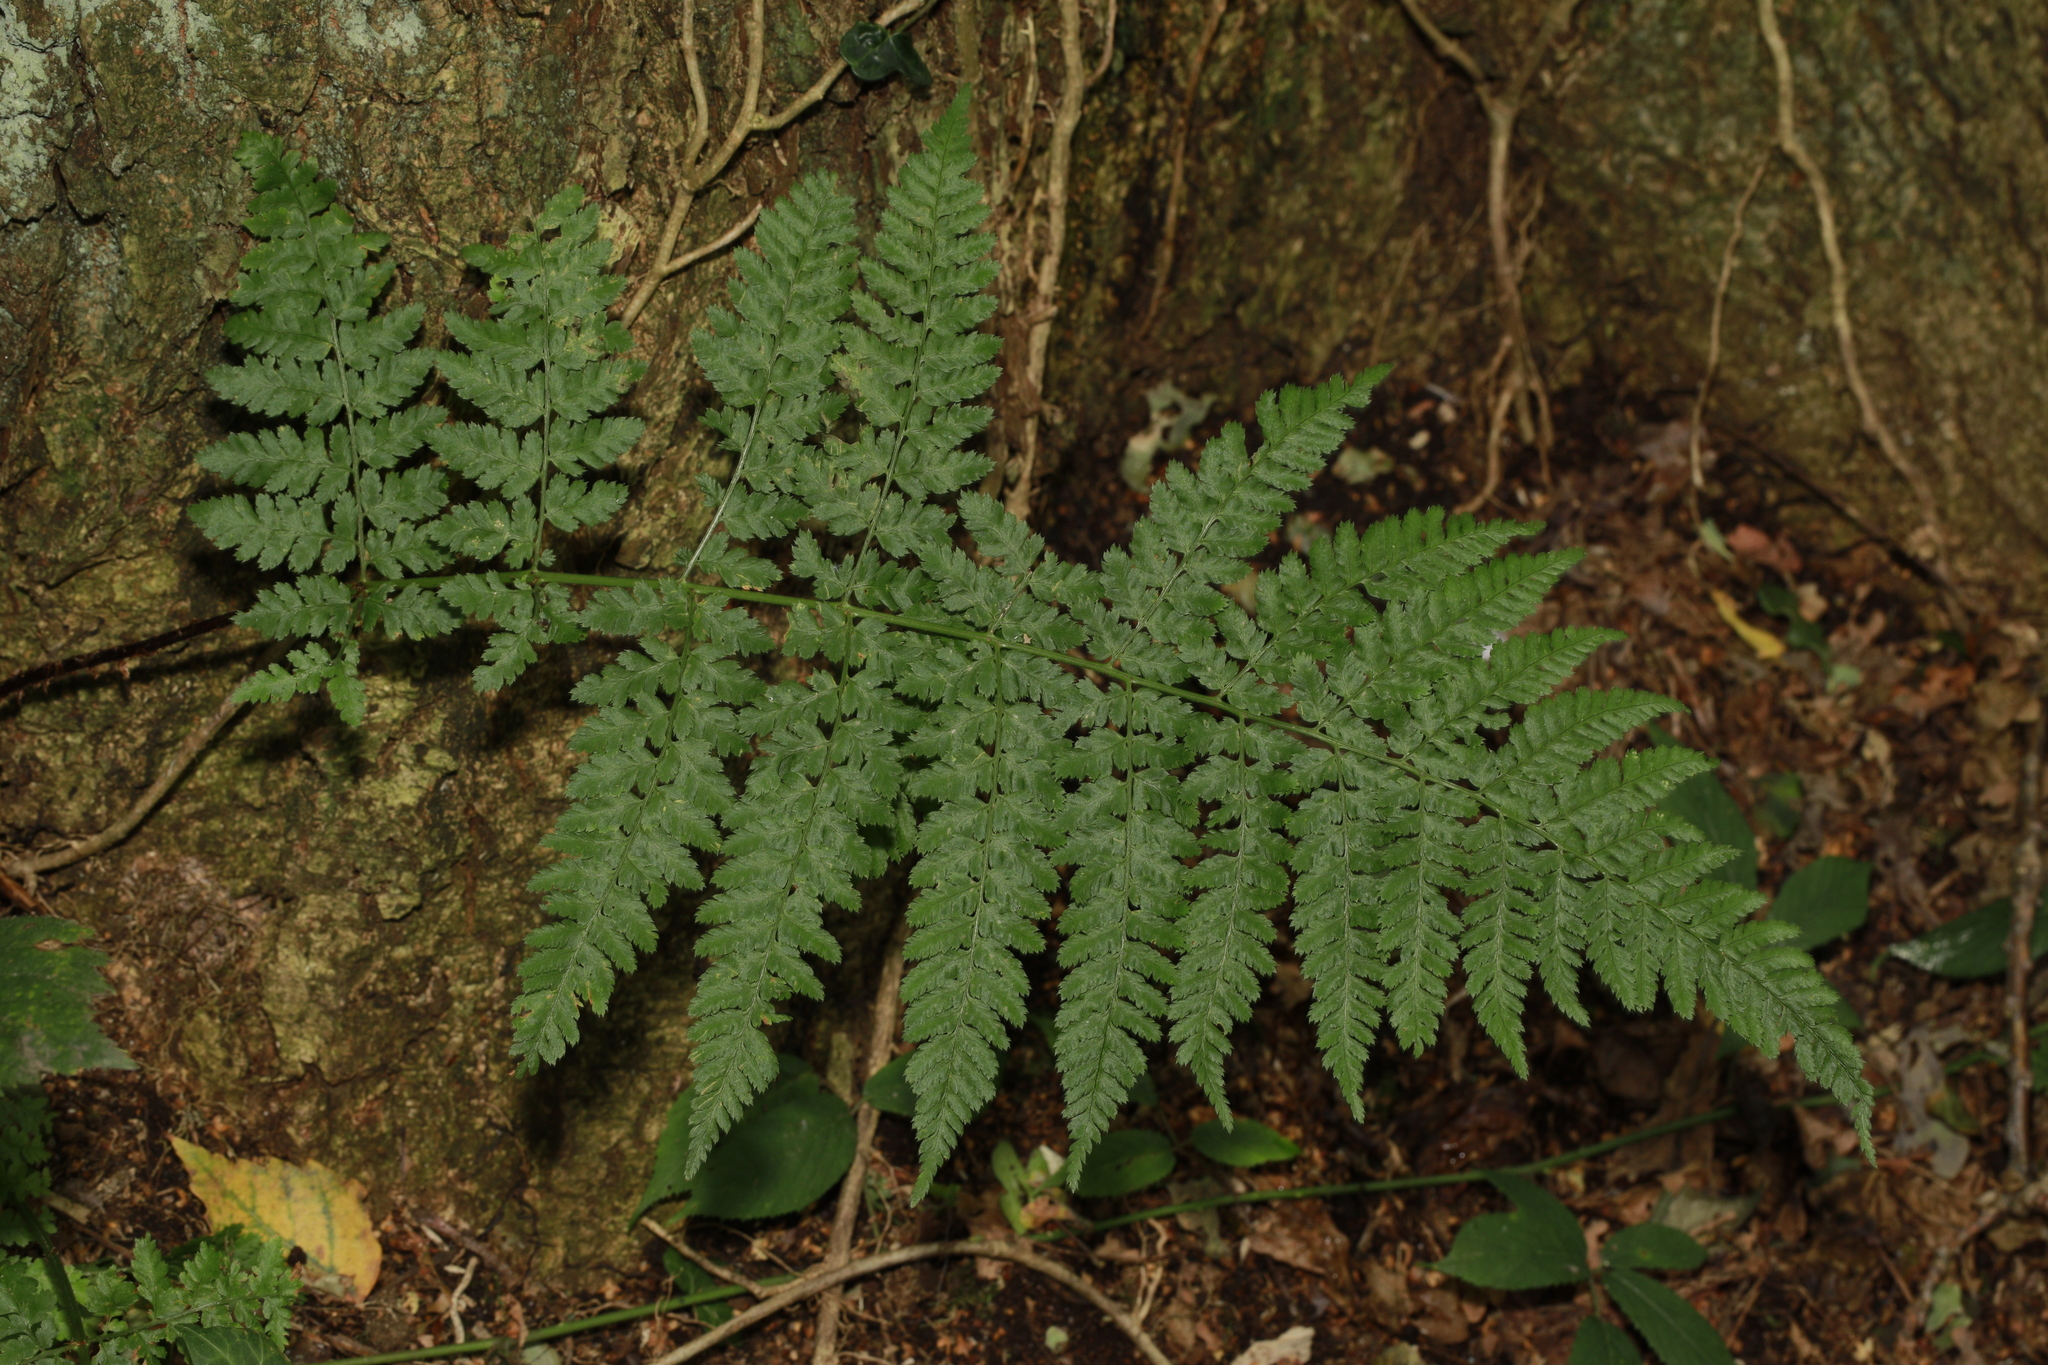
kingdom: Plantae
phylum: Tracheophyta
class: Polypodiopsida
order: Polypodiales
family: Dryopteridaceae
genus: Dryopteris
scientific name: Dryopteris dilatata
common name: Broad buckler-fern
